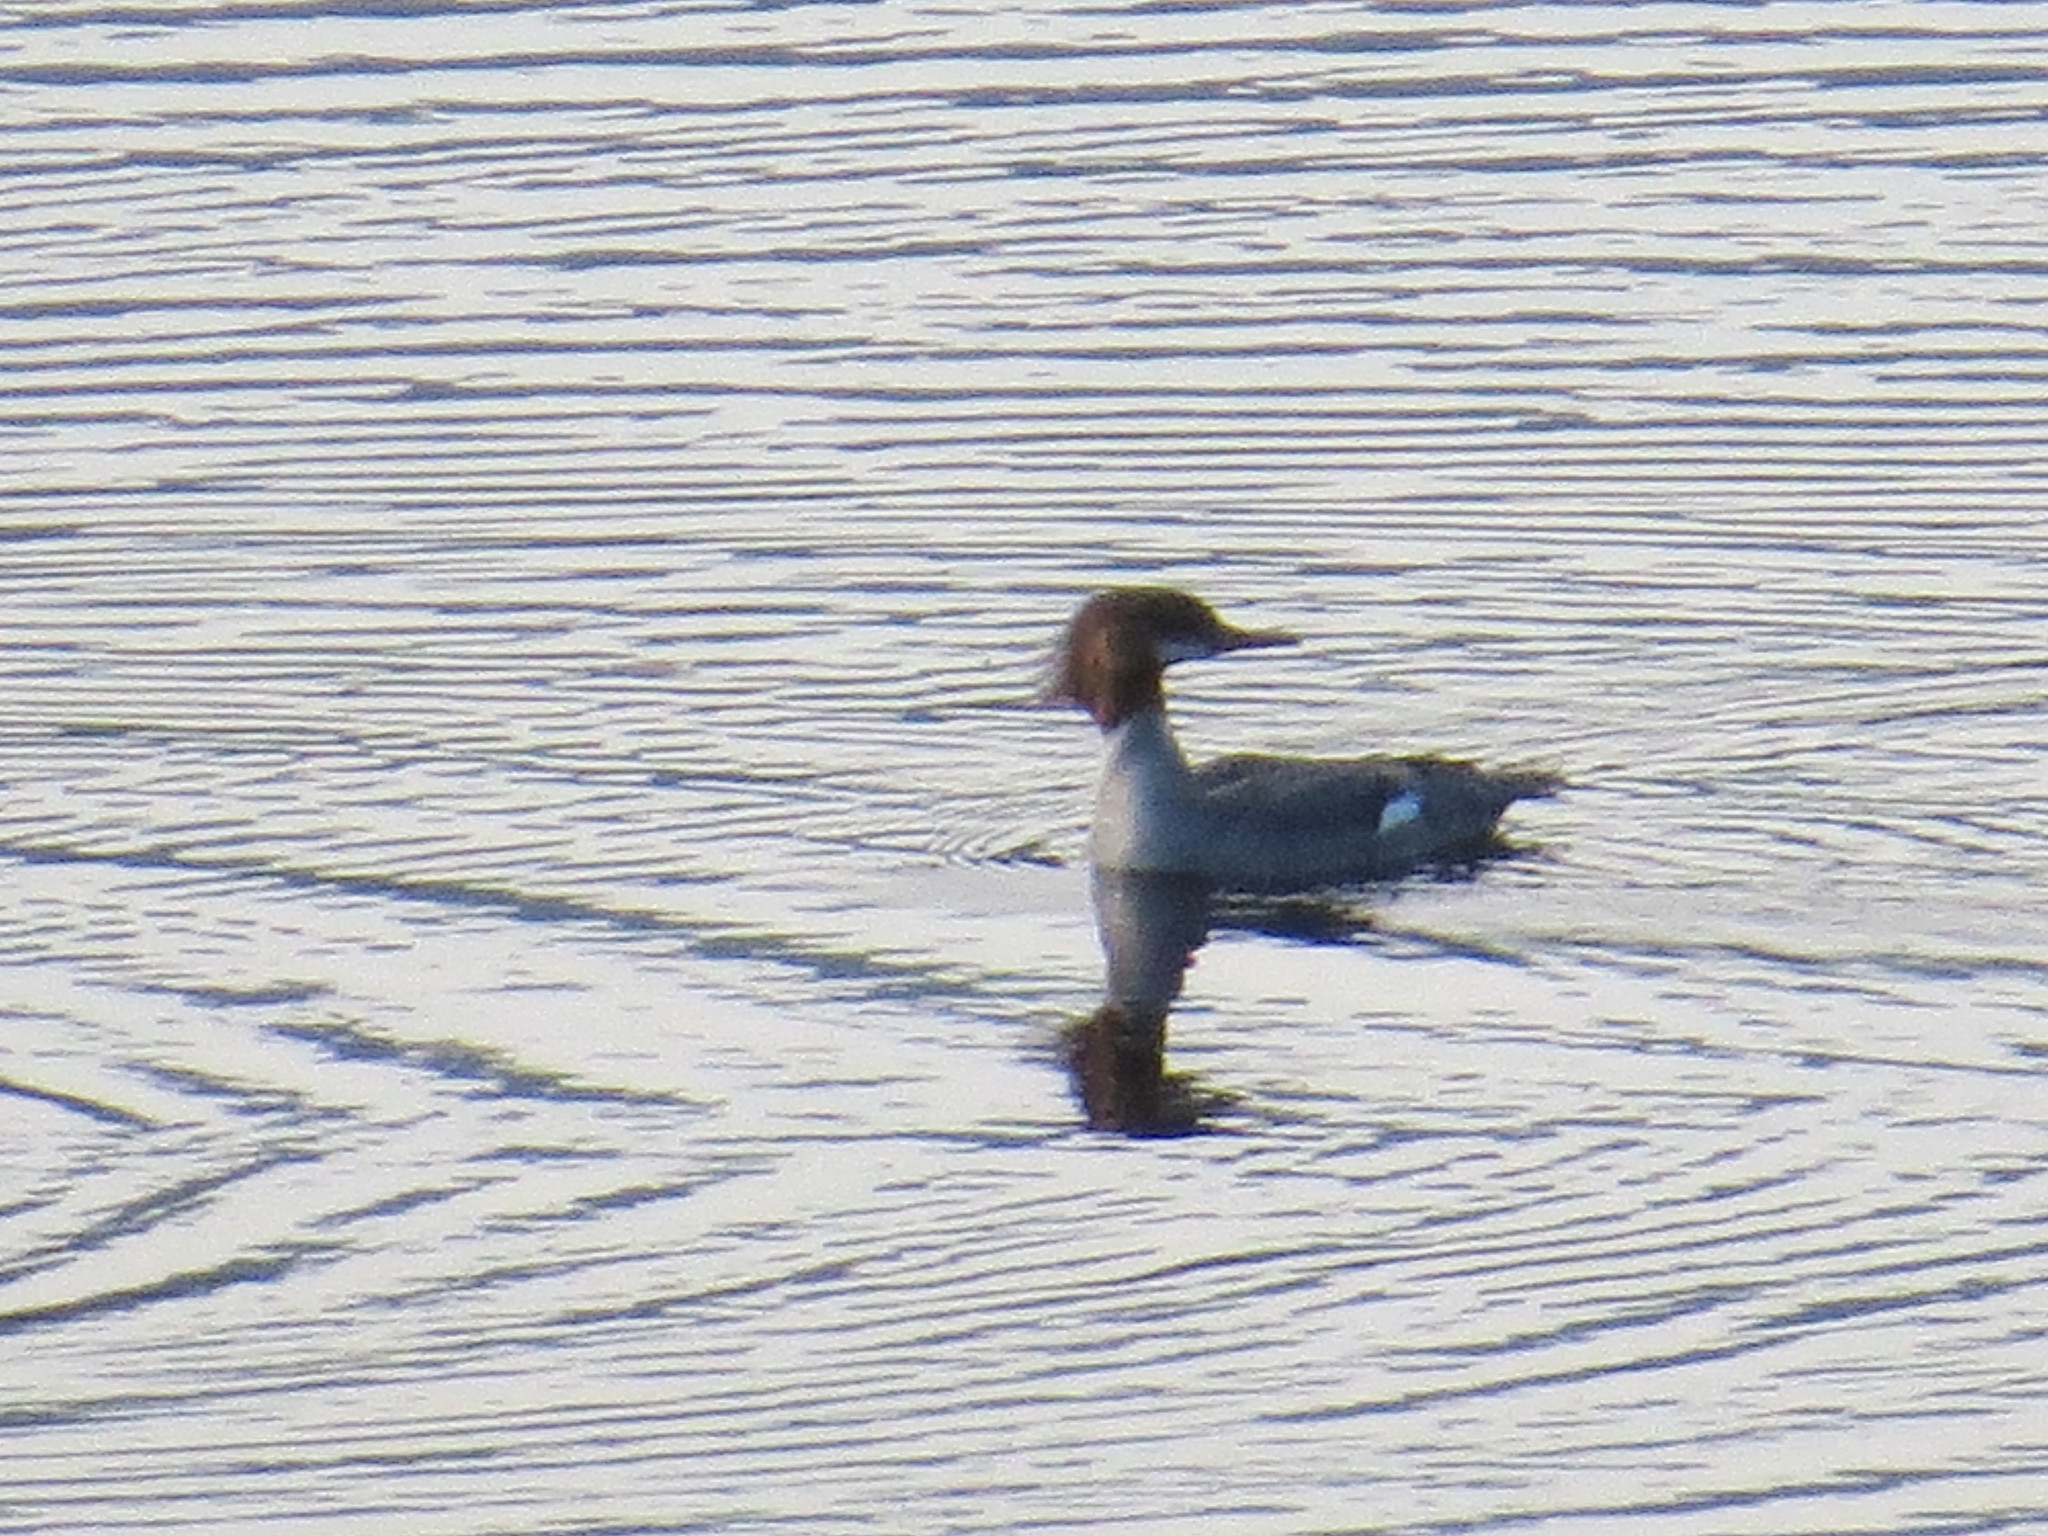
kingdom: Animalia
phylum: Chordata
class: Aves
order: Anseriformes
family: Anatidae
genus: Mergus
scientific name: Mergus merganser
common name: Common merganser
